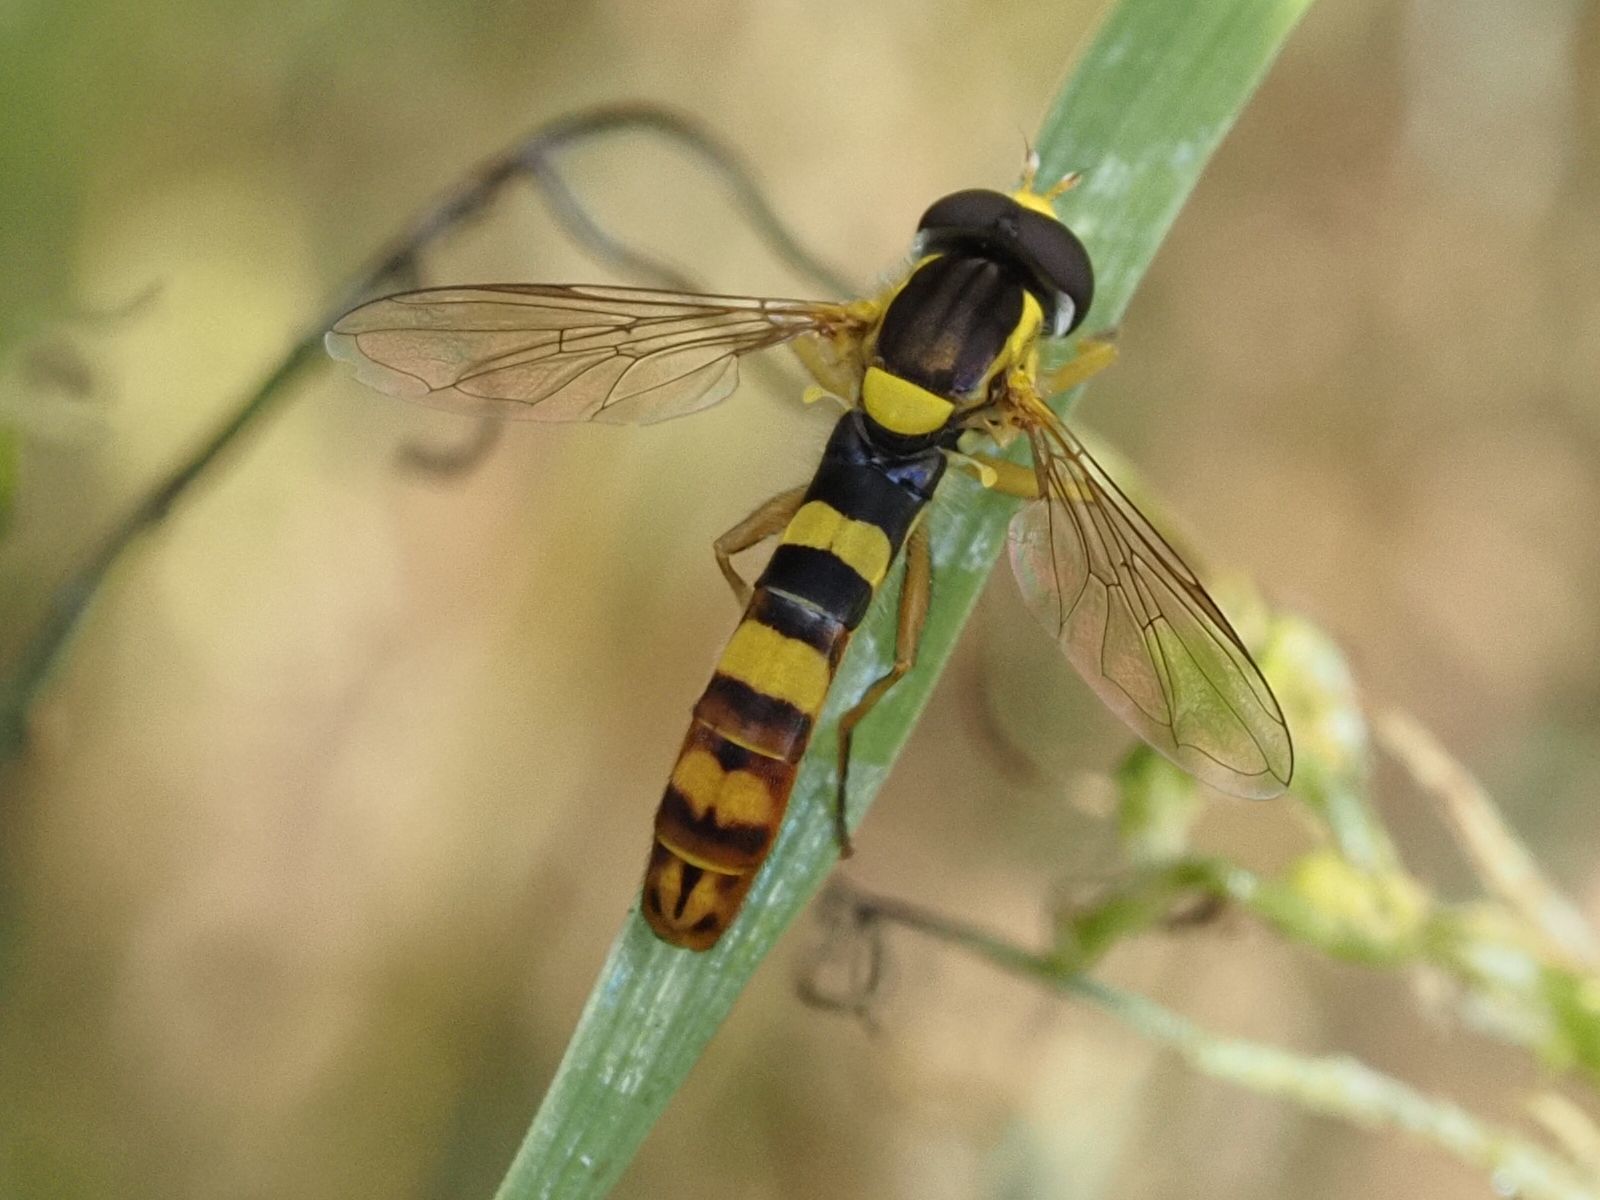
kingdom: Animalia
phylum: Arthropoda
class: Insecta
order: Diptera
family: Syrphidae
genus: Sphaerophoria
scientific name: Sphaerophoria scripta
